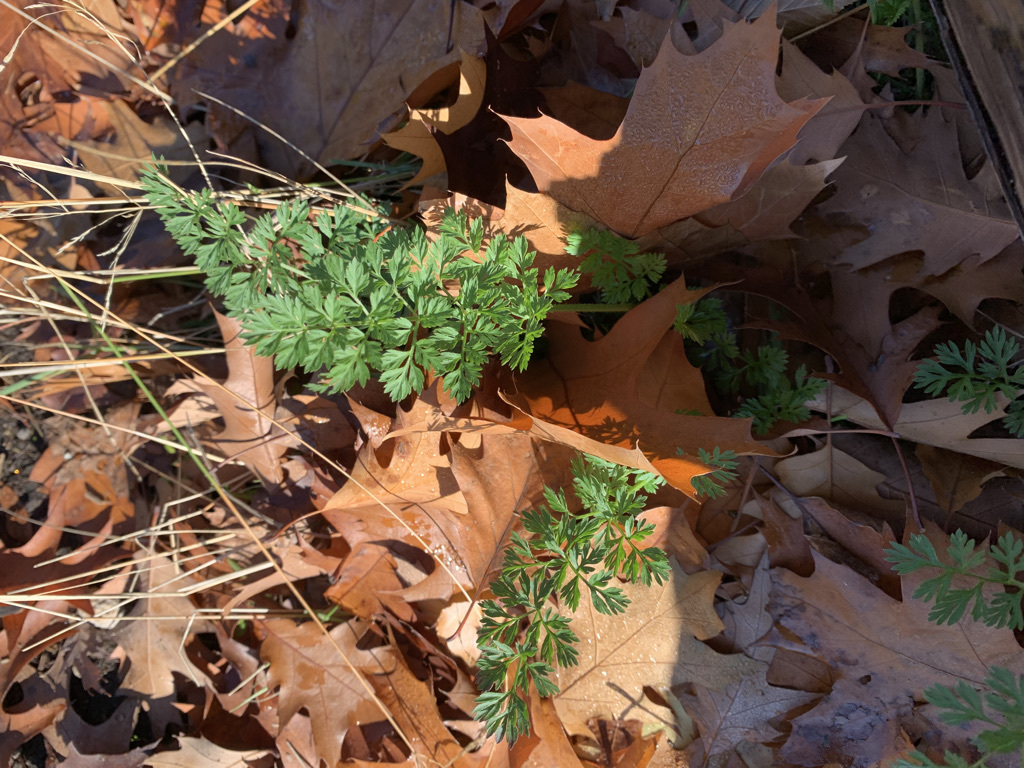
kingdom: Plantae
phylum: Tracheophyta
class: Magnoliopsida
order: Apiales
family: Apiaceae
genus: Daucus
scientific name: Daucus carota
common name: Wild carrot
